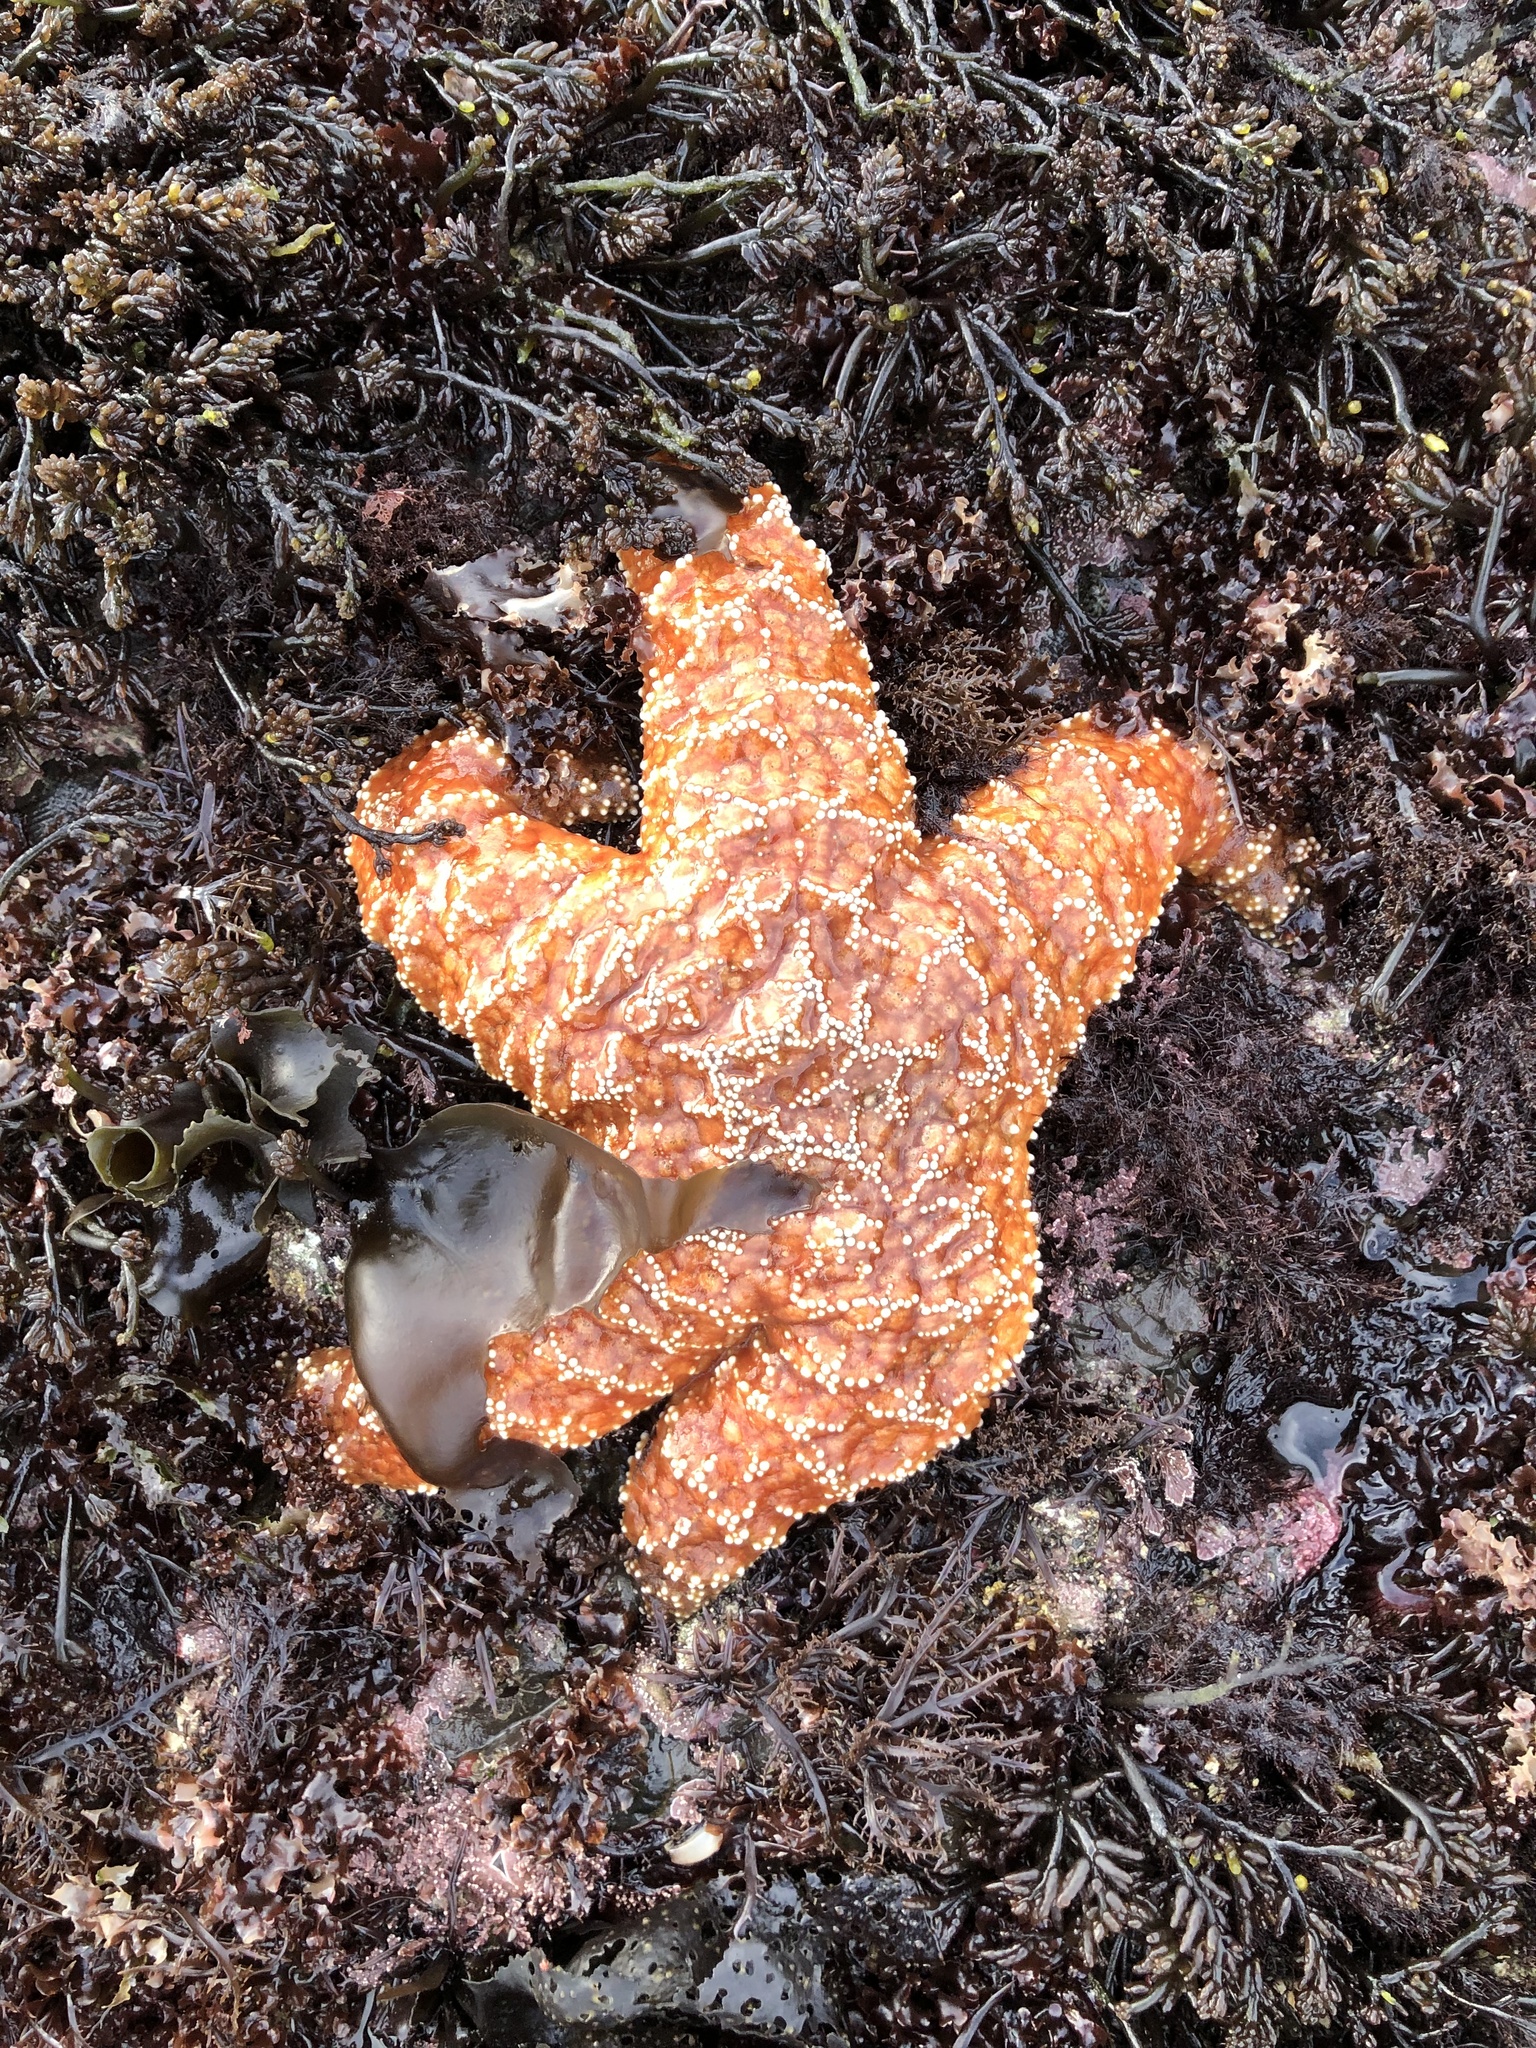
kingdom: Animalia
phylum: Echinodermata
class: Asteroidea
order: Forcipulatida
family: Asteriidae
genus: Pisaster
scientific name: Pisaster ochraceus
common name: Ochre stars
